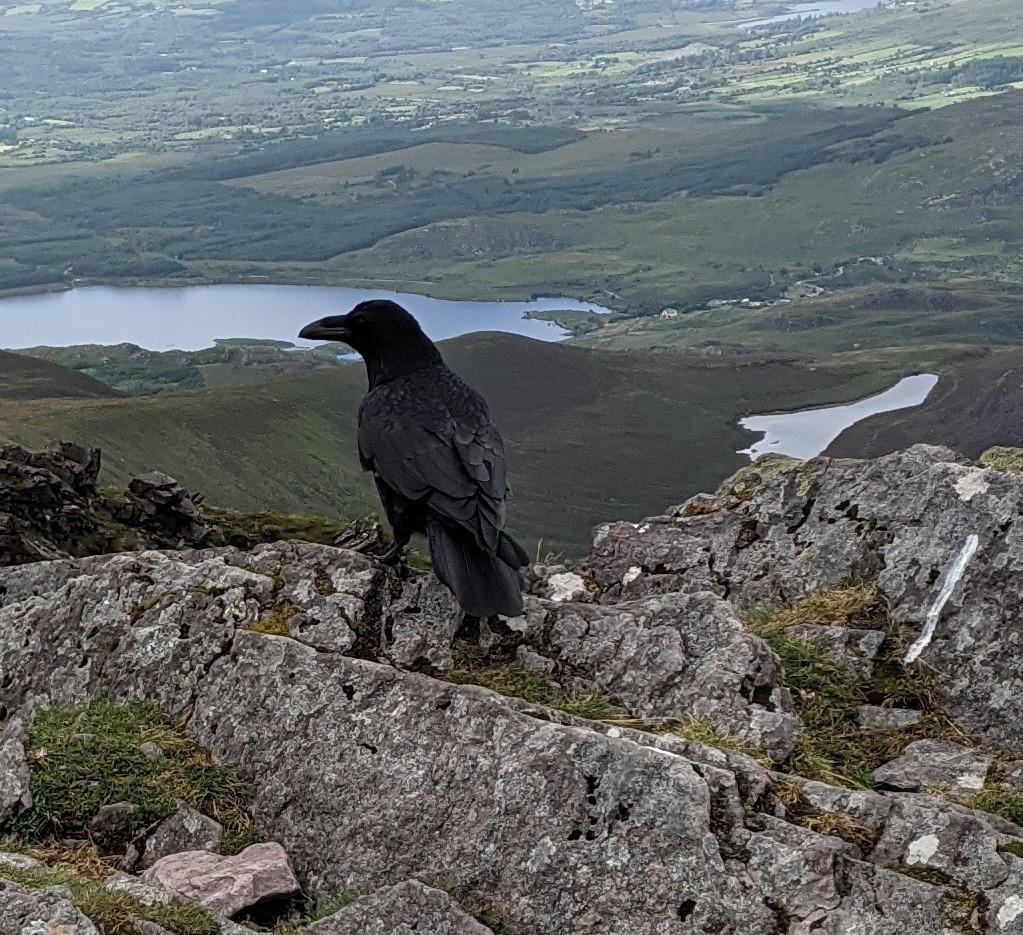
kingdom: Animalia
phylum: Chordata
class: Aves
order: Passeriformes
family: Corvidae
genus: Corvus
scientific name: Corvus corax
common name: Common raven
